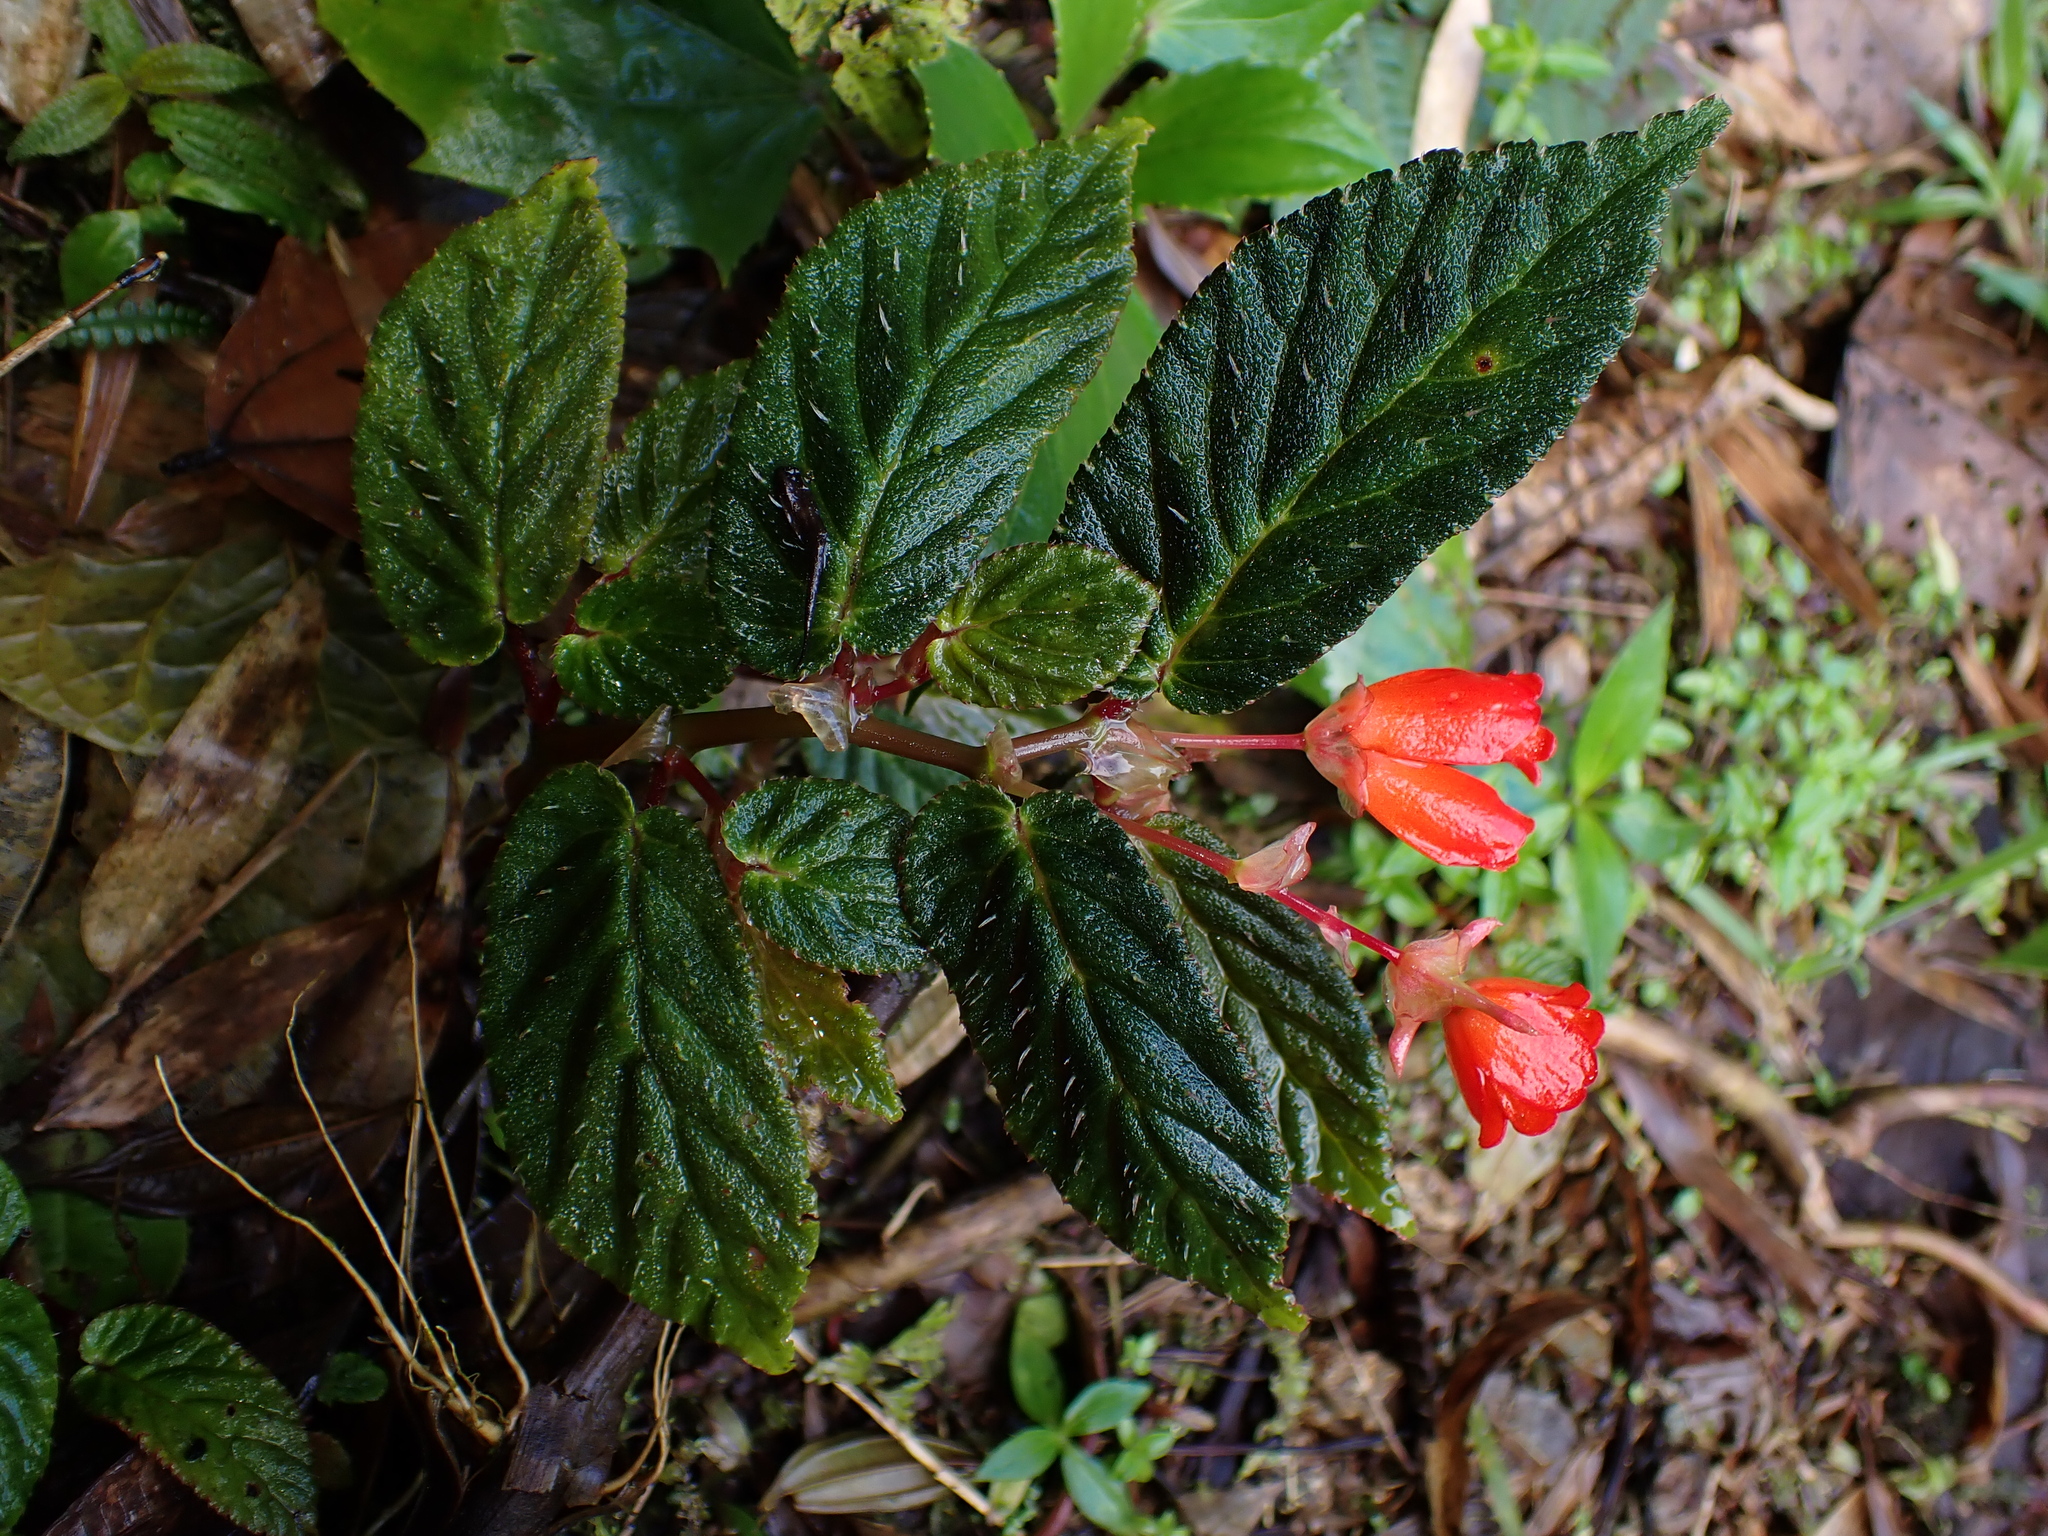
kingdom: Plantae
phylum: Tracheophyta
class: Magnoliopsida
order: Cucurbitales
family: Begoniaceae
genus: Begonia
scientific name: Begonia longirostris
